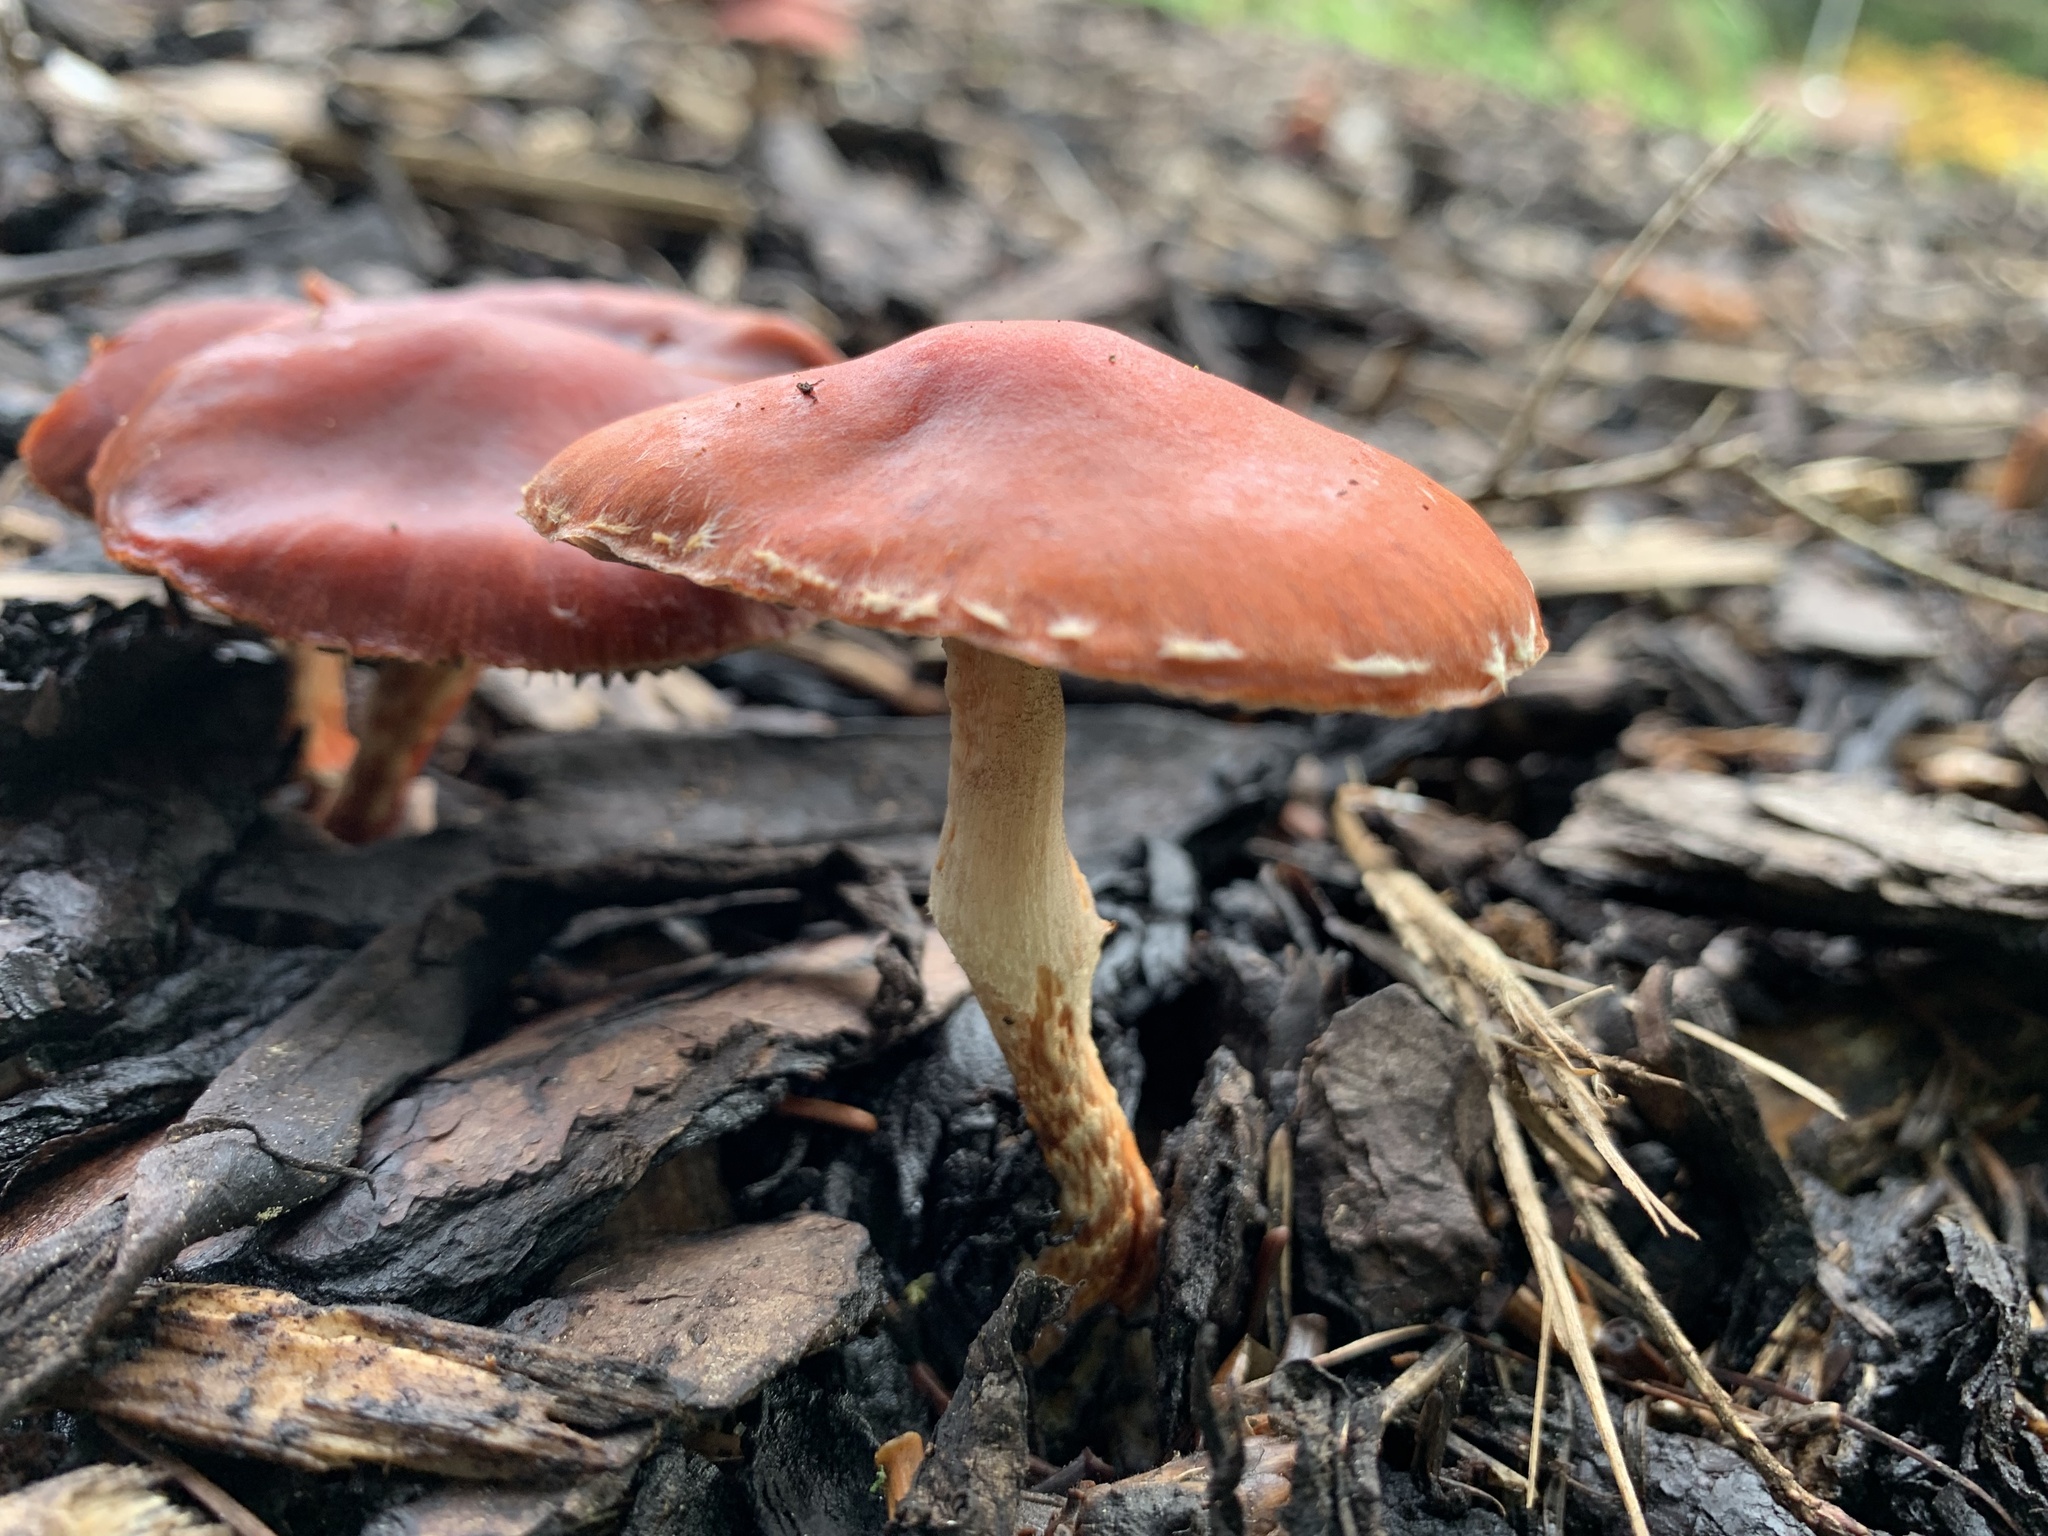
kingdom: Fungi
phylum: Basidiomycota
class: Agaricomycetes
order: Agaricales
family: Strophariaceae
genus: Leratiomyces
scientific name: Leratiomyces ceres
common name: Redlead roundhead
